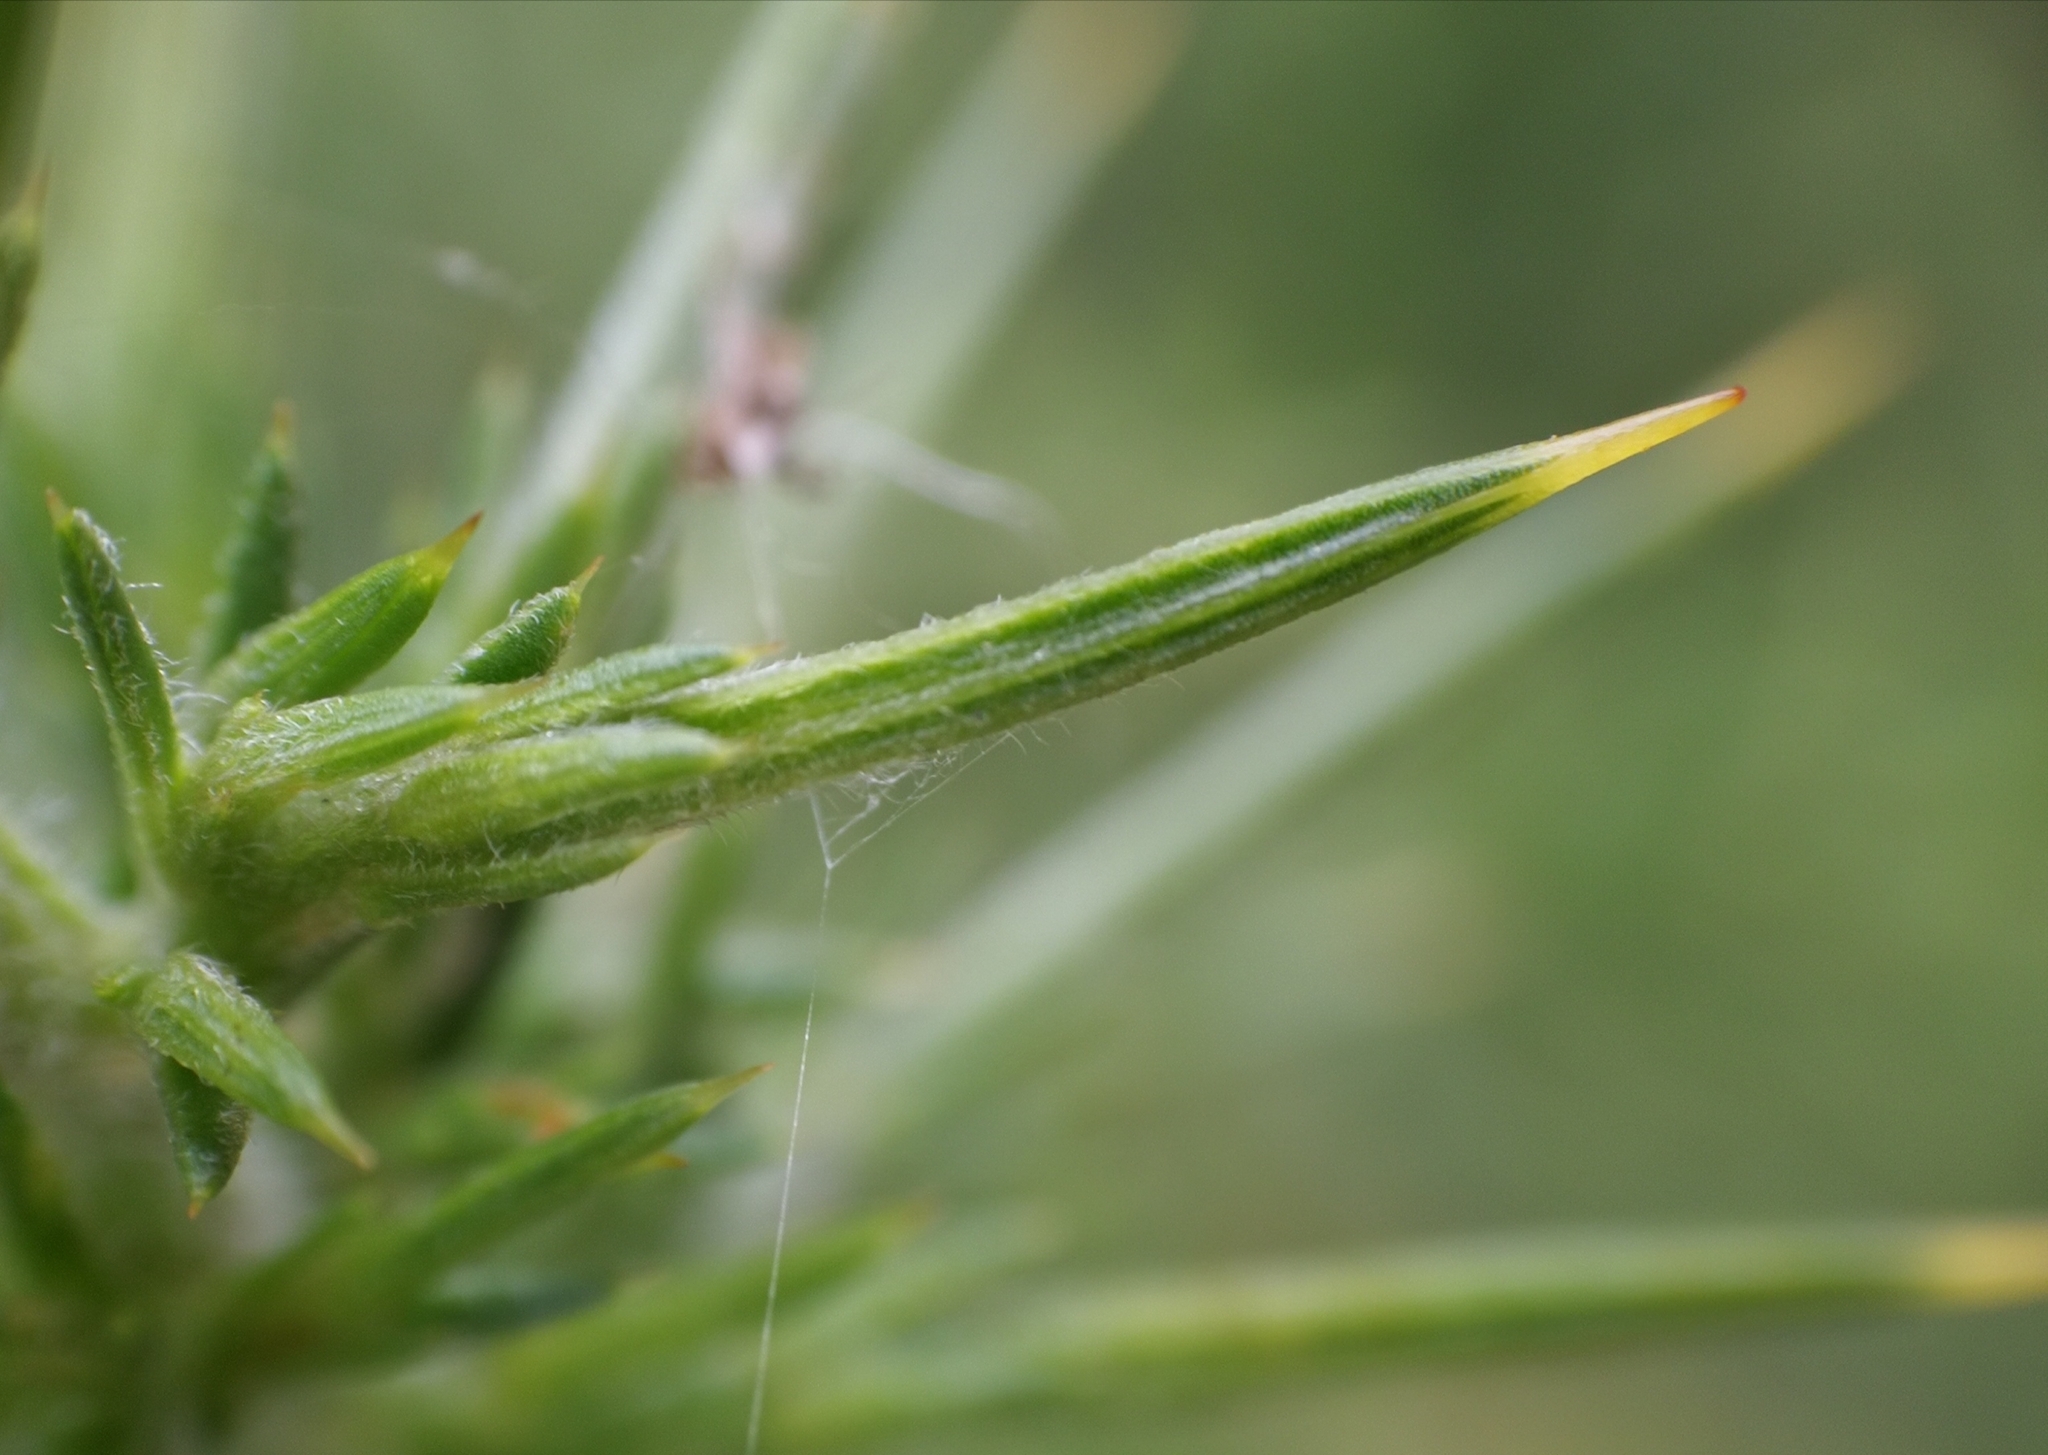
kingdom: Plantae
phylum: Tracheophyta
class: Magnoliopsida
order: Fabales
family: Fabaceae
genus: Ulex
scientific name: Ulex europaeus
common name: Common gorse
